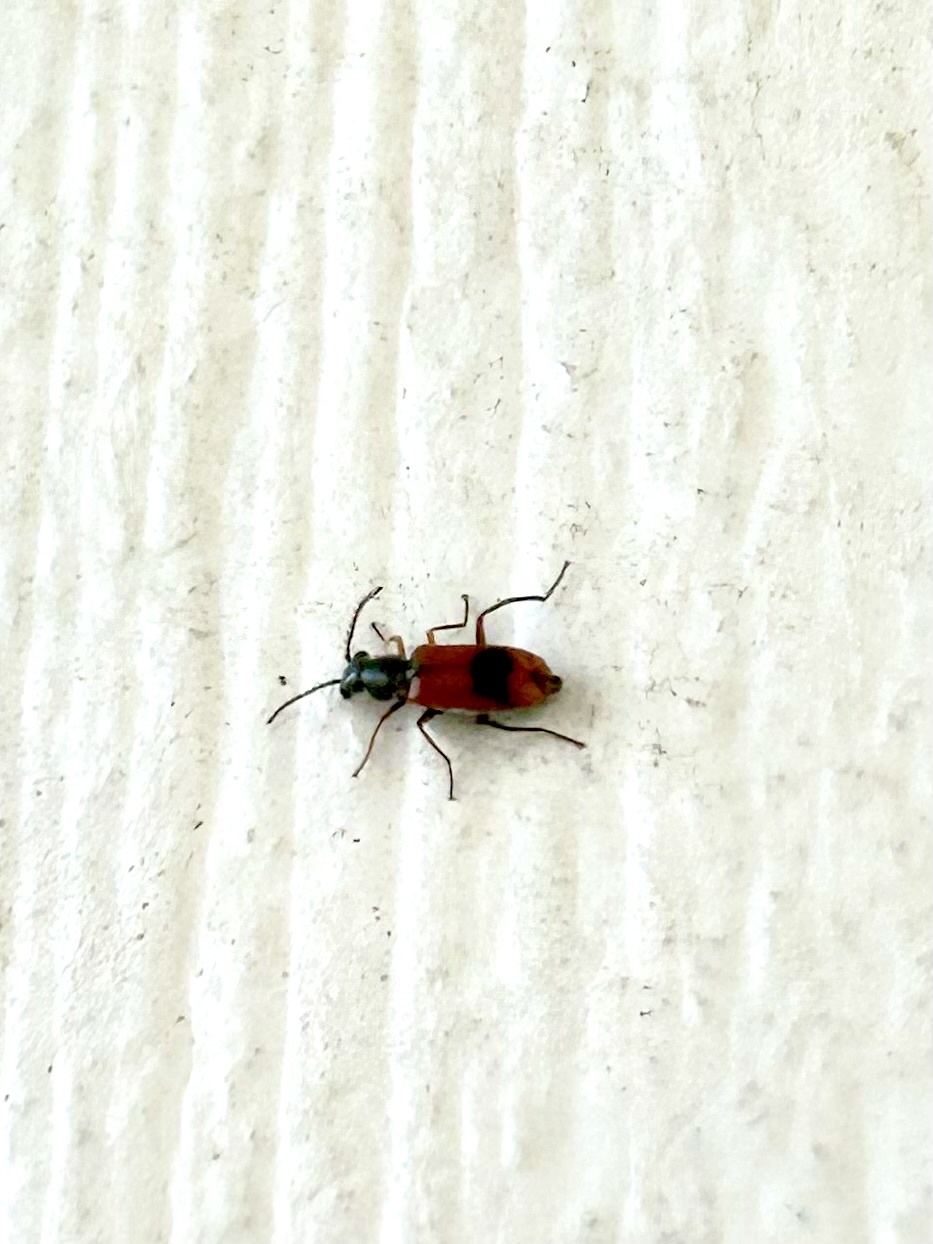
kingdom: Animalia
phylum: Arthropoda
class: Insecta
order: Coleoptera
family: Melyridae
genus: Anthocomus
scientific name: Anthocomus equestris
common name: Black-banded soft-winged flower beetle
